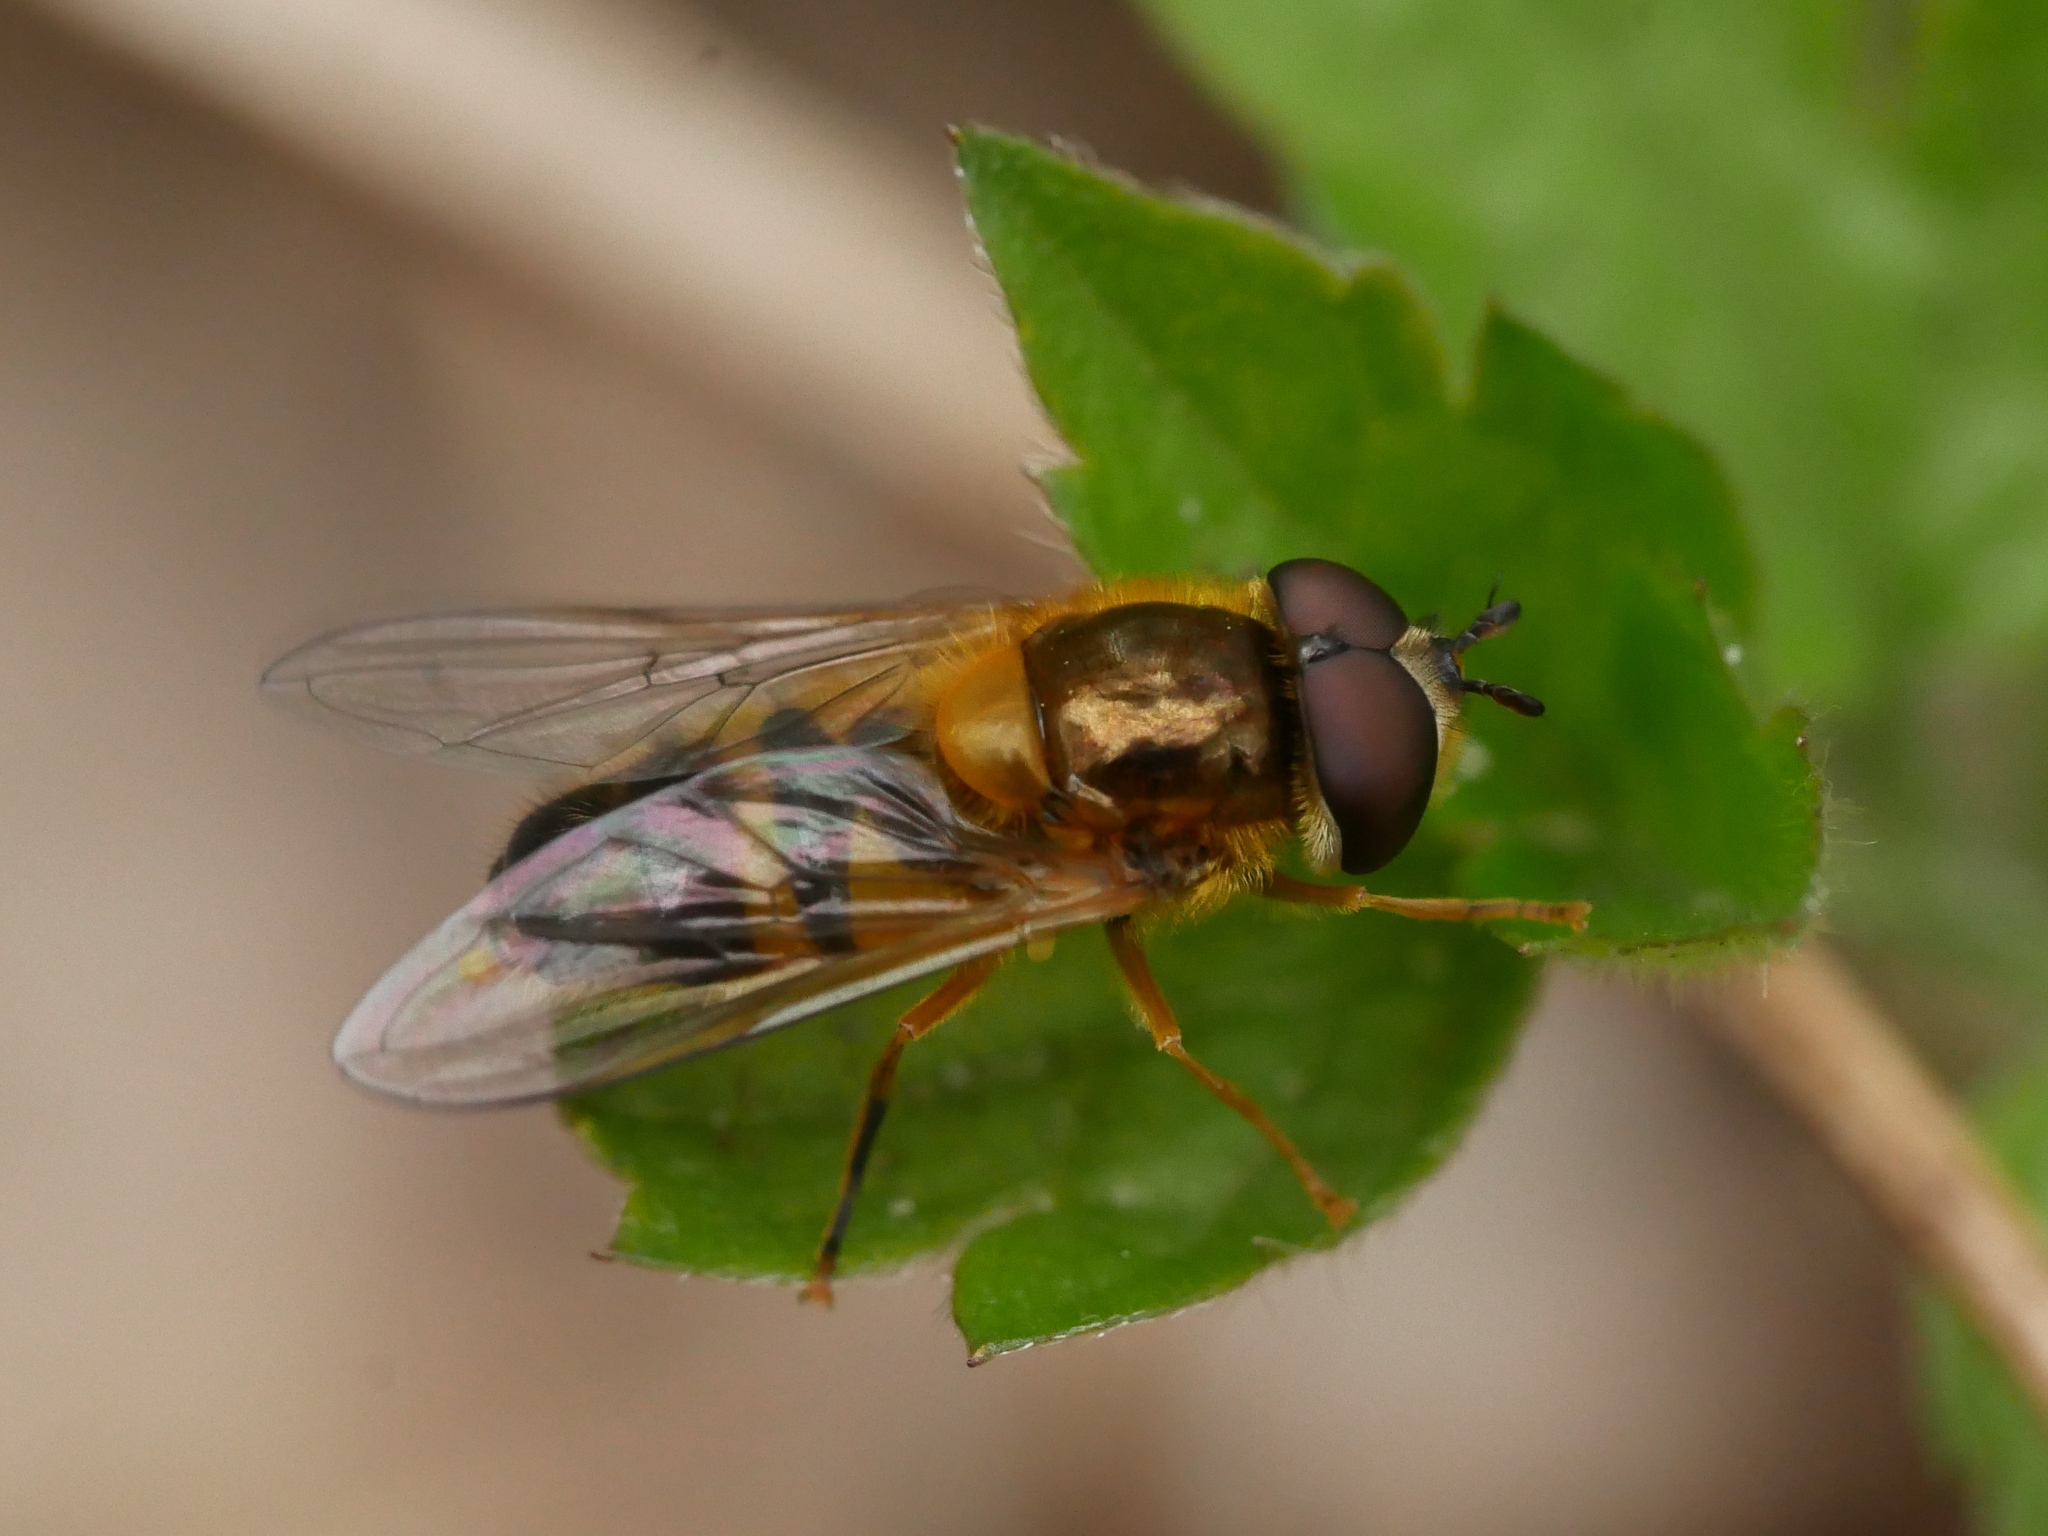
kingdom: Animalia
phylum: Arthropoda
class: Insecta
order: Diptera
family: Syrphidae
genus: Epistrophe
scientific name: Epistrophe eligans
